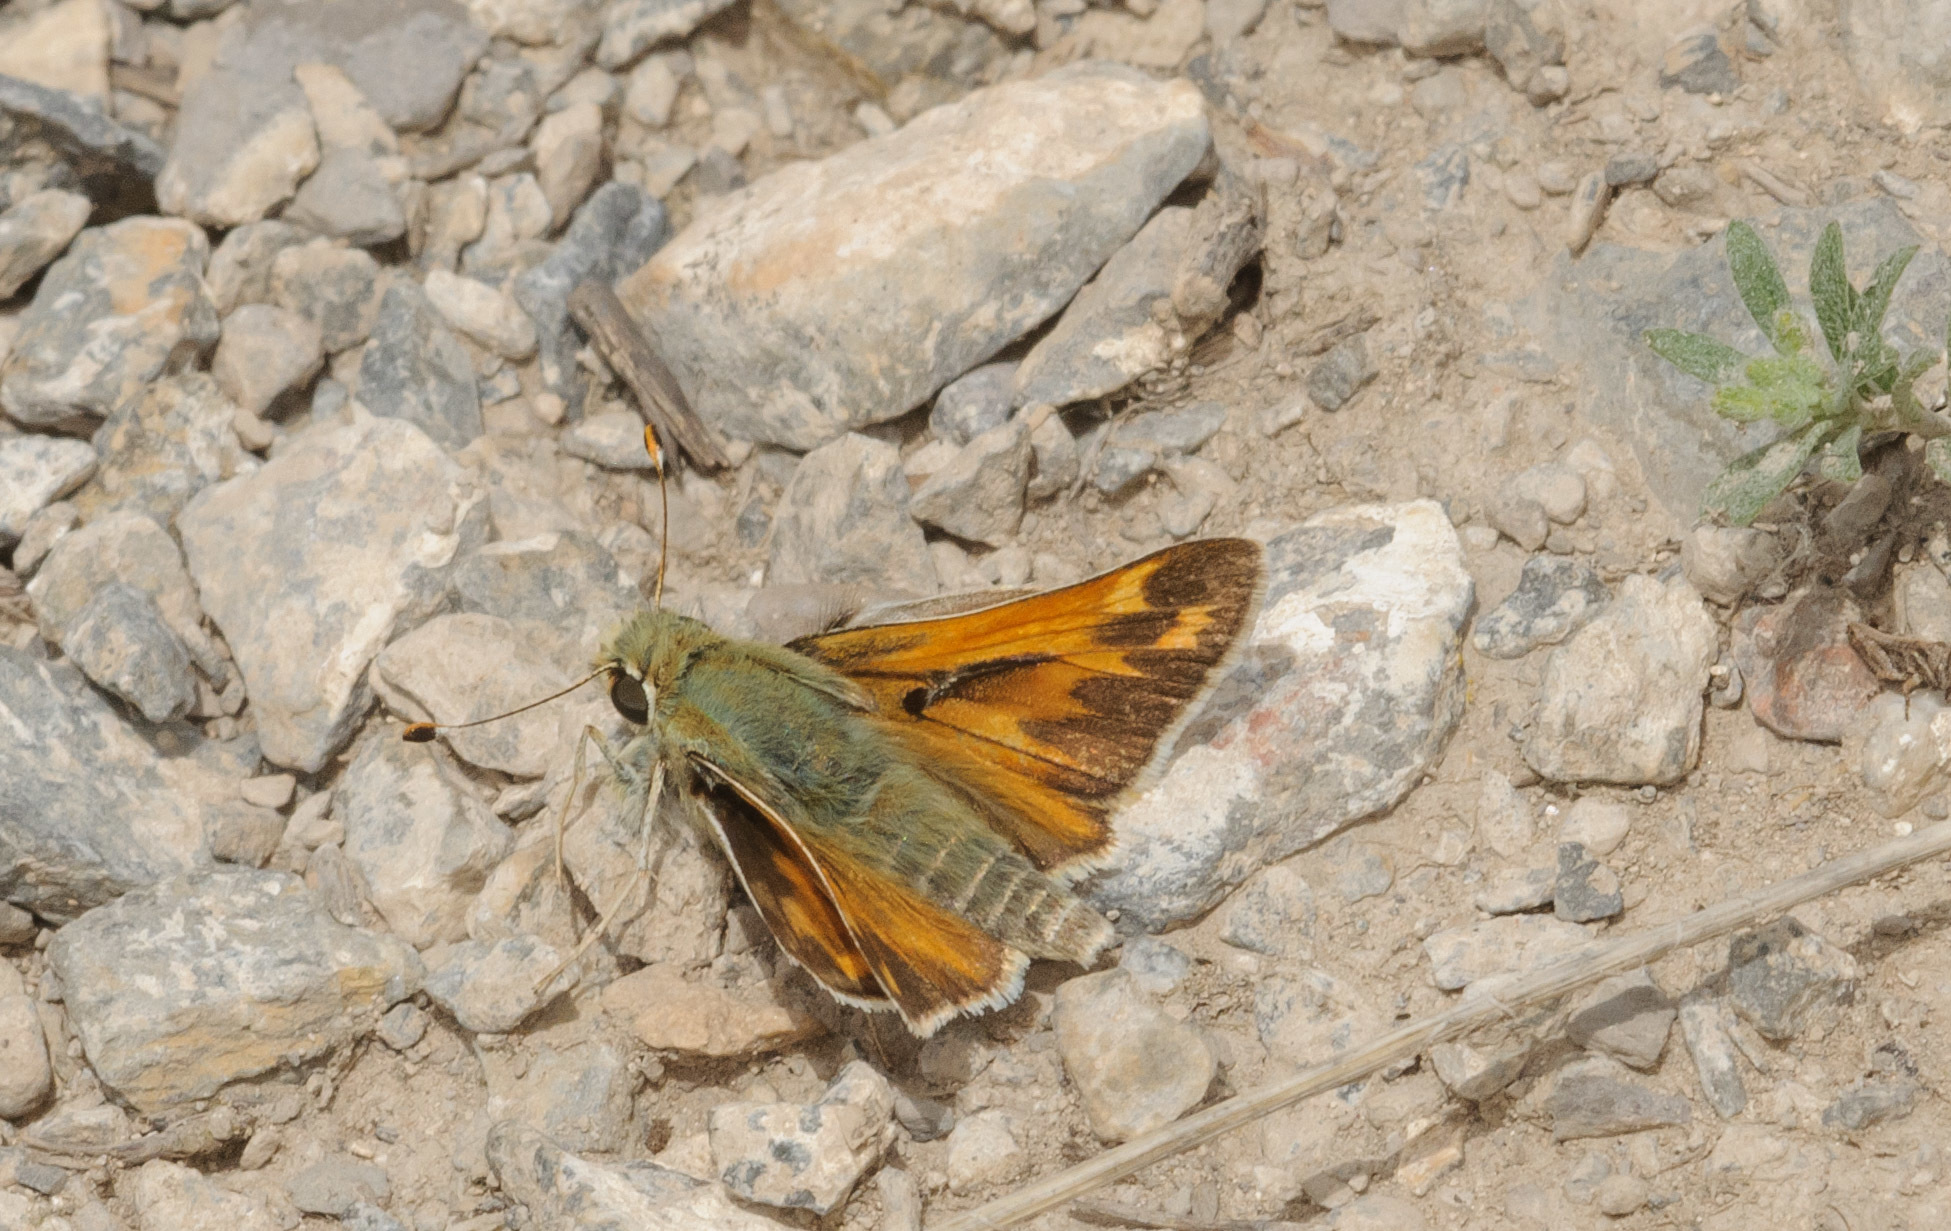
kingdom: Animalia
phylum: Arthropoda
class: Insecta
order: Lepidoptera
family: Hesperiidae
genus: Hesperia
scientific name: Hesperia juba
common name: Juba skipper
